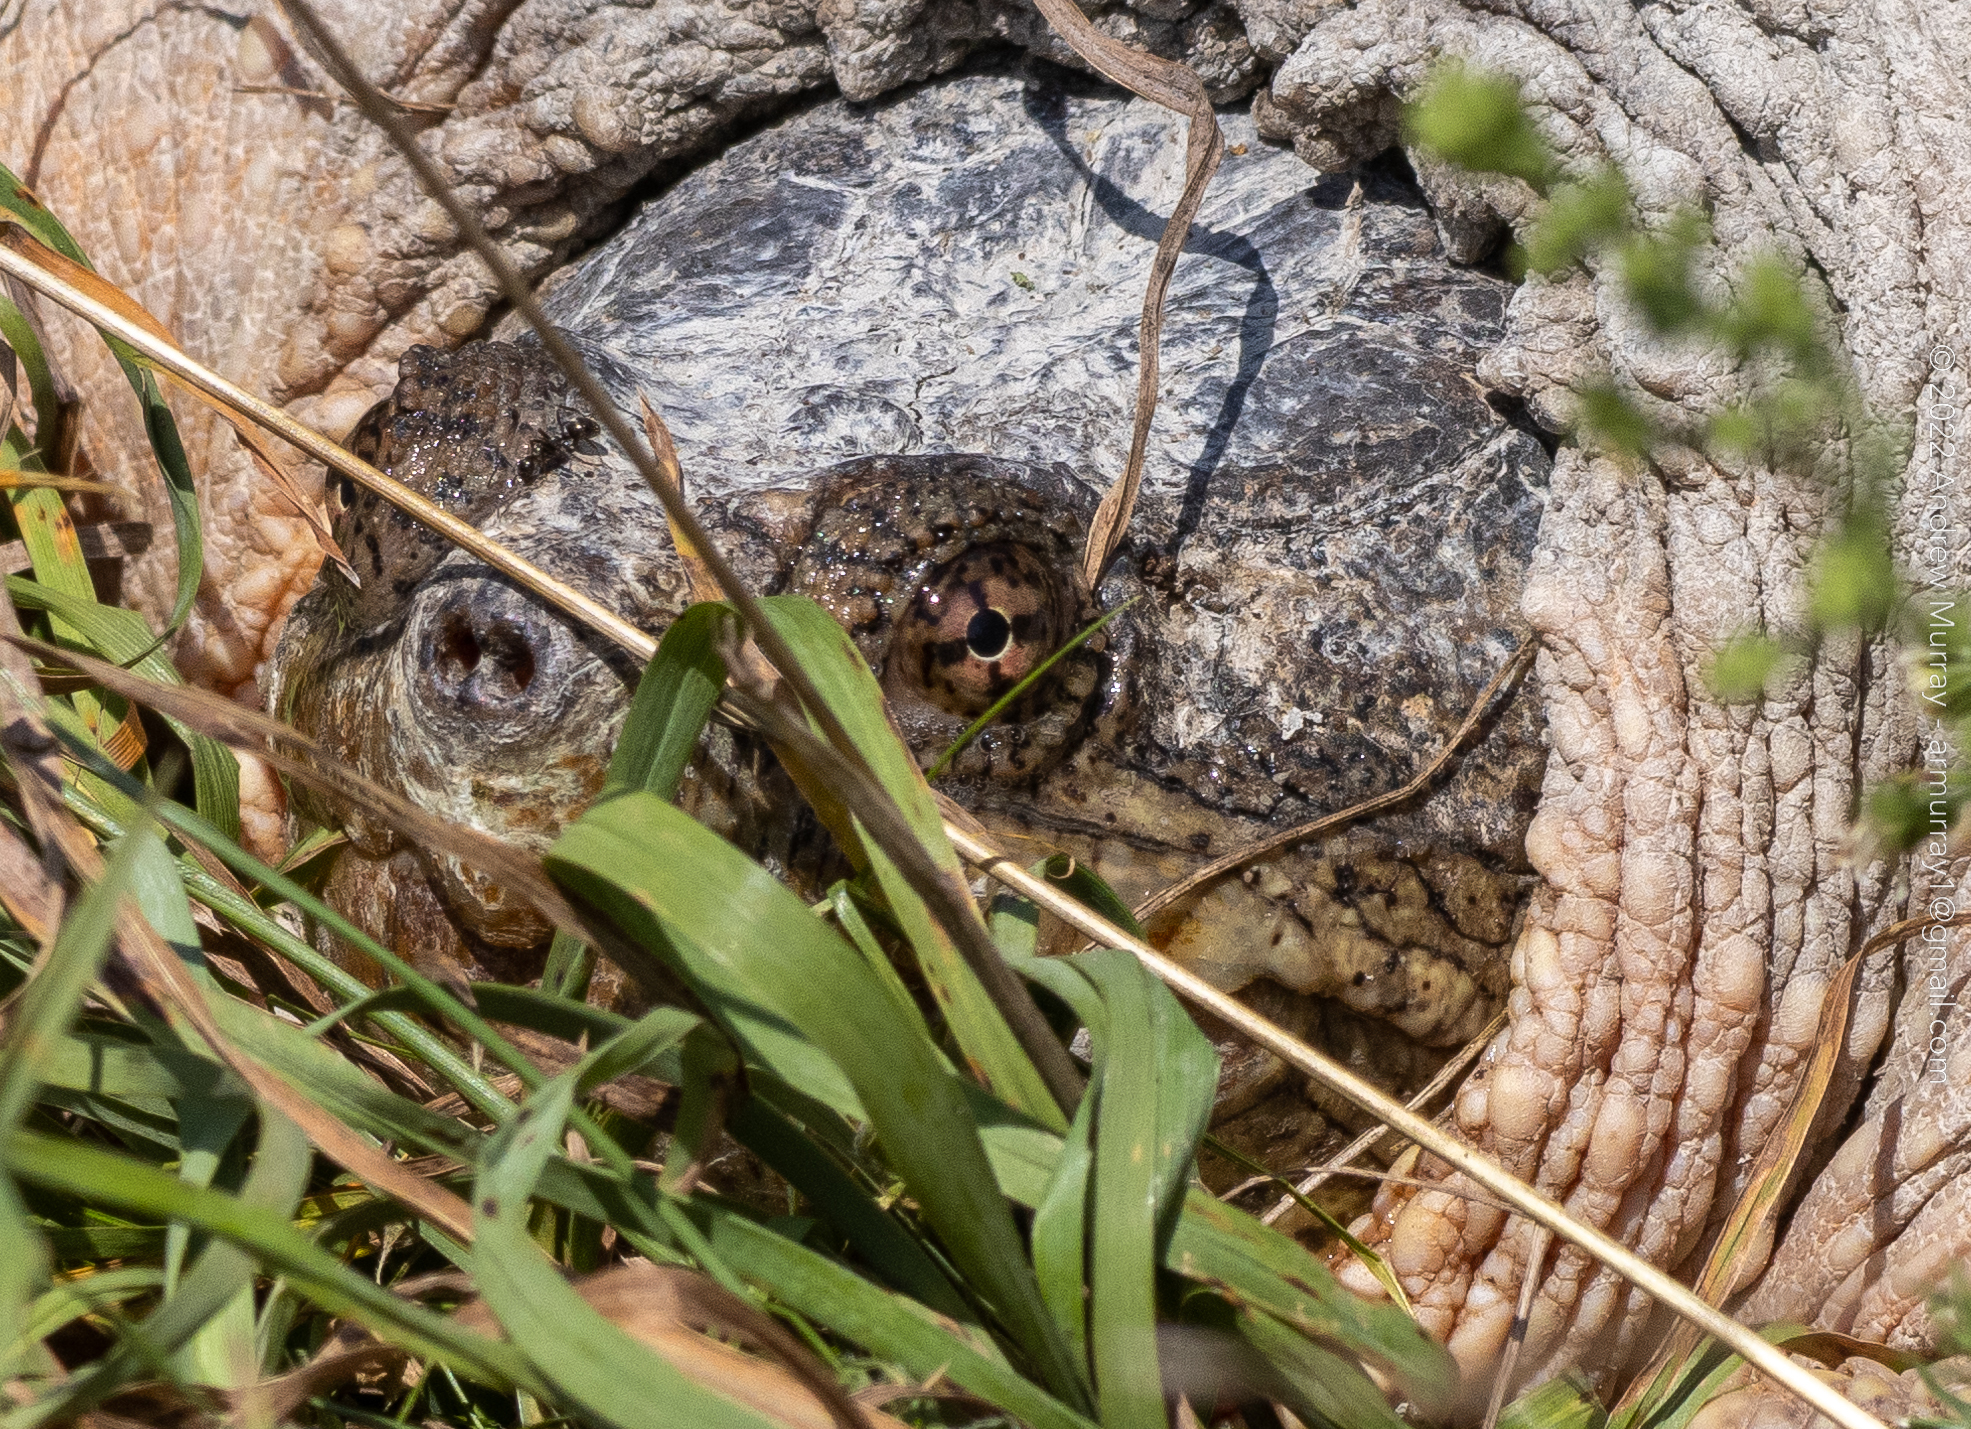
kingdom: Animalia
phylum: Chordata
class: Testudines
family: Chelydridae
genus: Chelydra
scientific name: Chelydra serpentina
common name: Common snapping turtle
